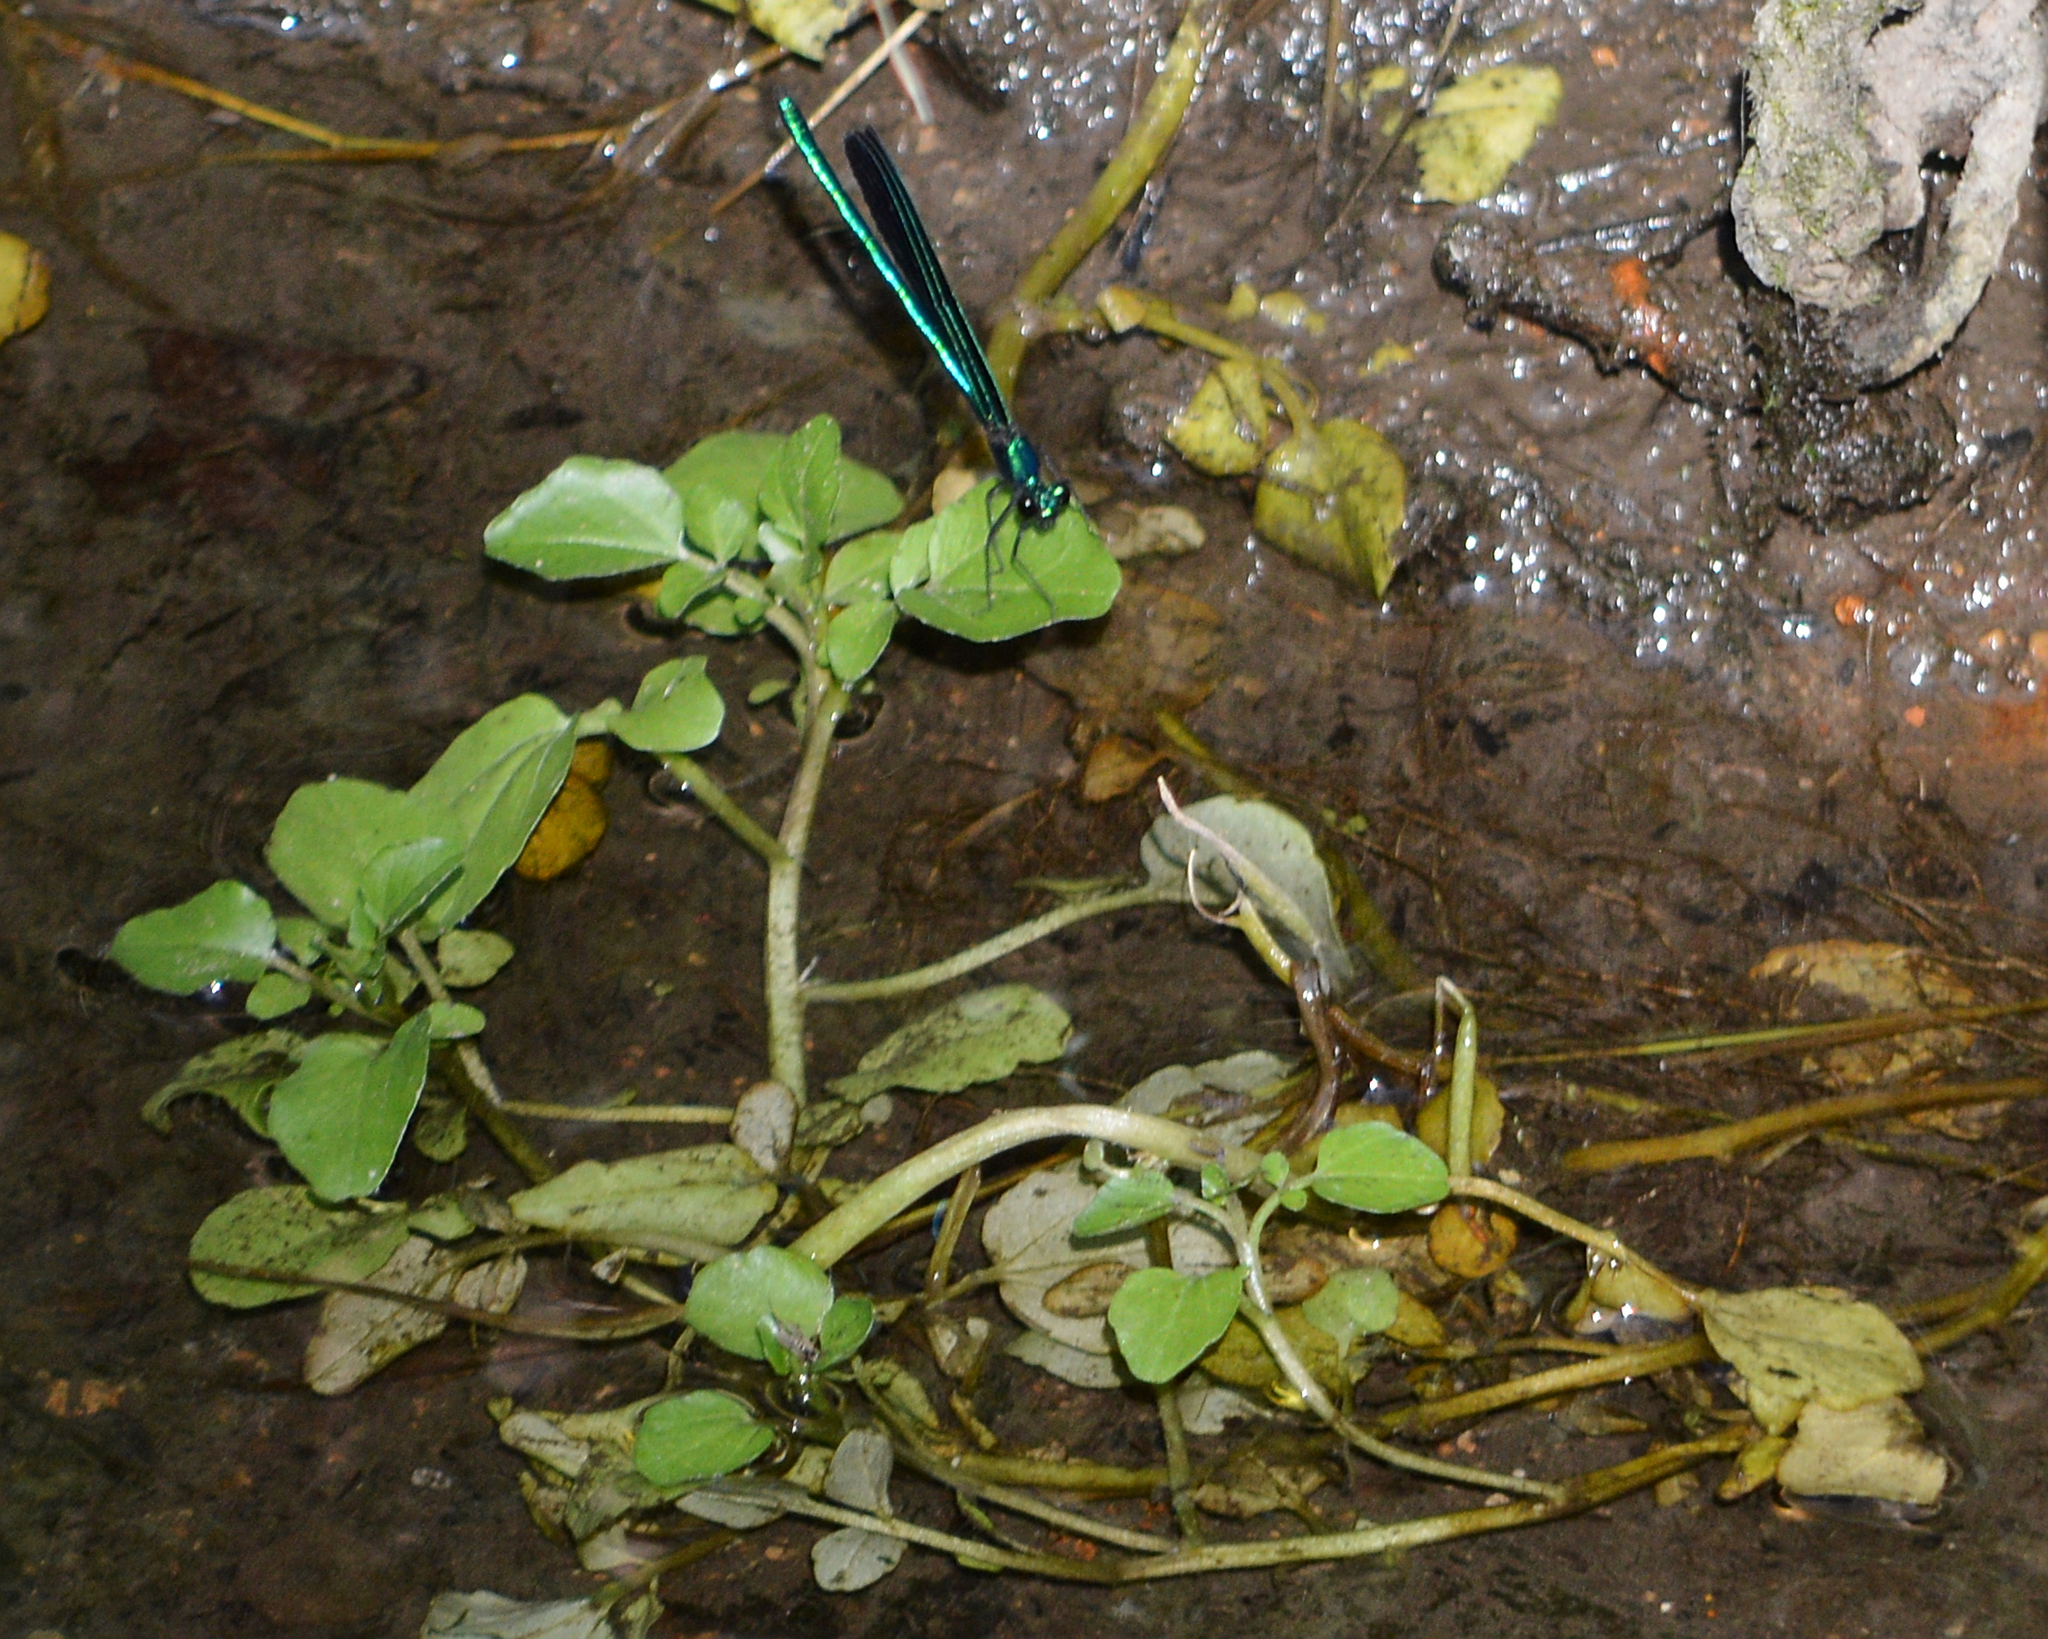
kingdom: Animalia
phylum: Arthropoda
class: Insecta
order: Odonata
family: Calopterygidae
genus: Calopteryx
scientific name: Calopteryx maculata
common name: Ebony jewelwing
